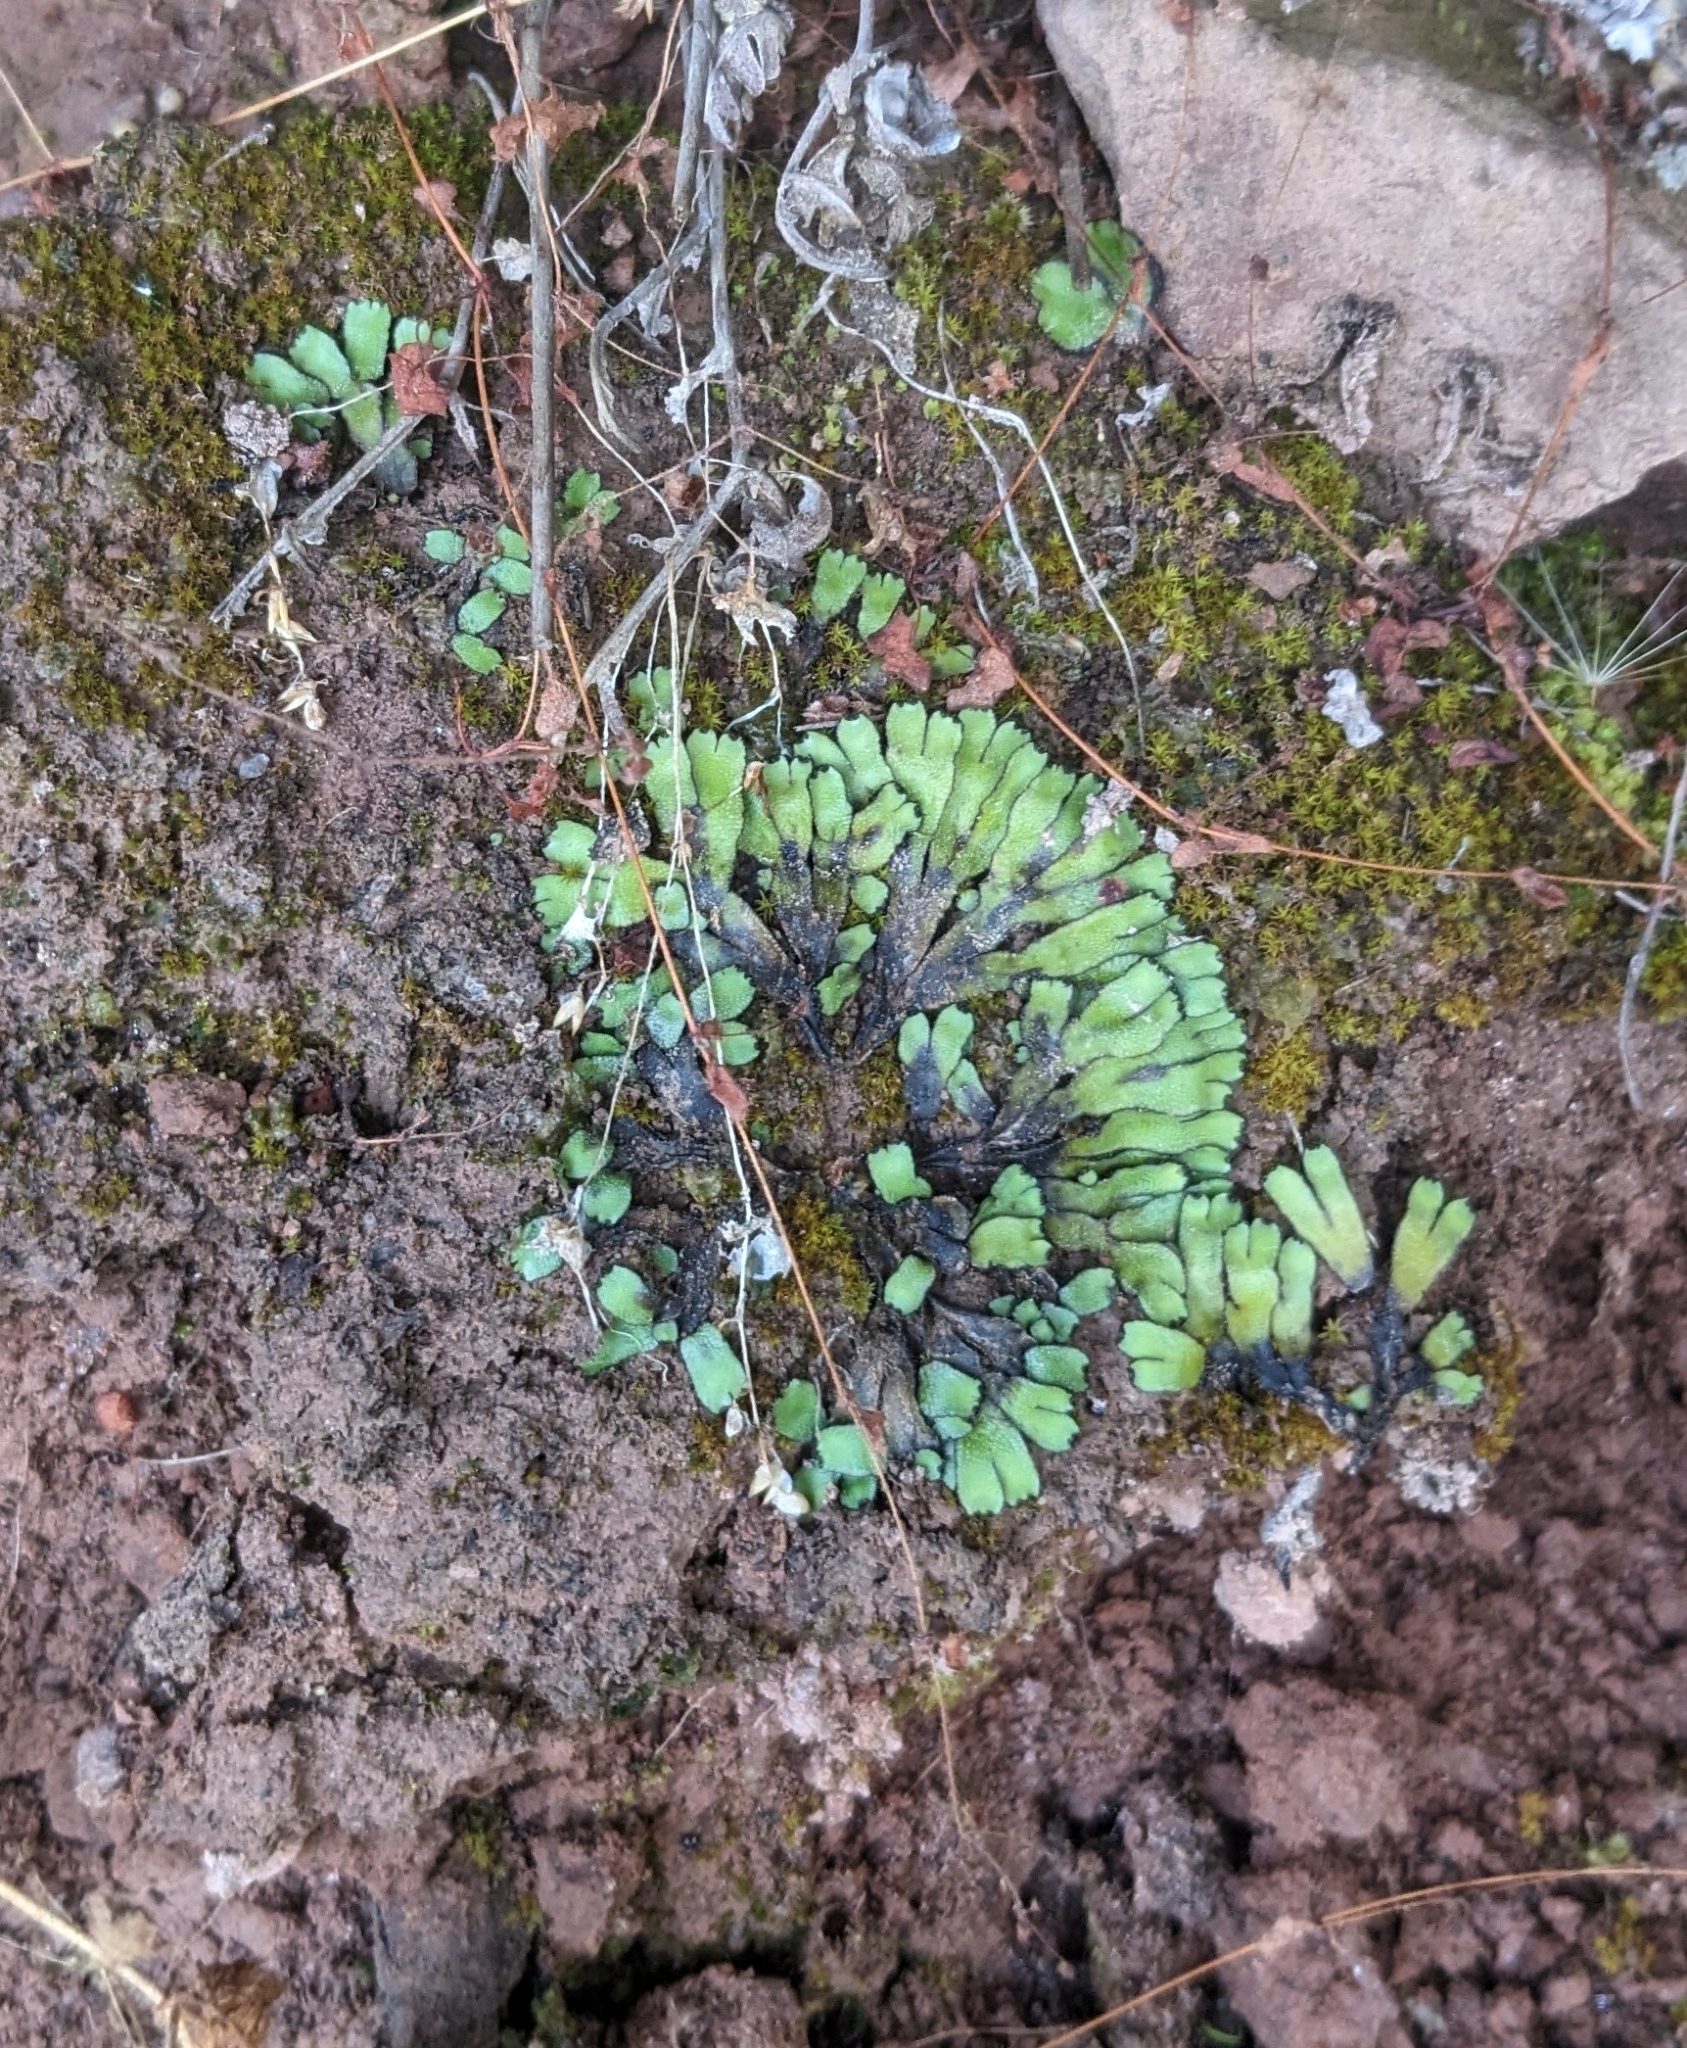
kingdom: Plantae
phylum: Marchantiophyta
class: Marchantiopsida
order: Marchantiales
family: Targioniaceae
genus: Targionia
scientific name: Targionia hypophylla
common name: Orobus-seed liverwort
